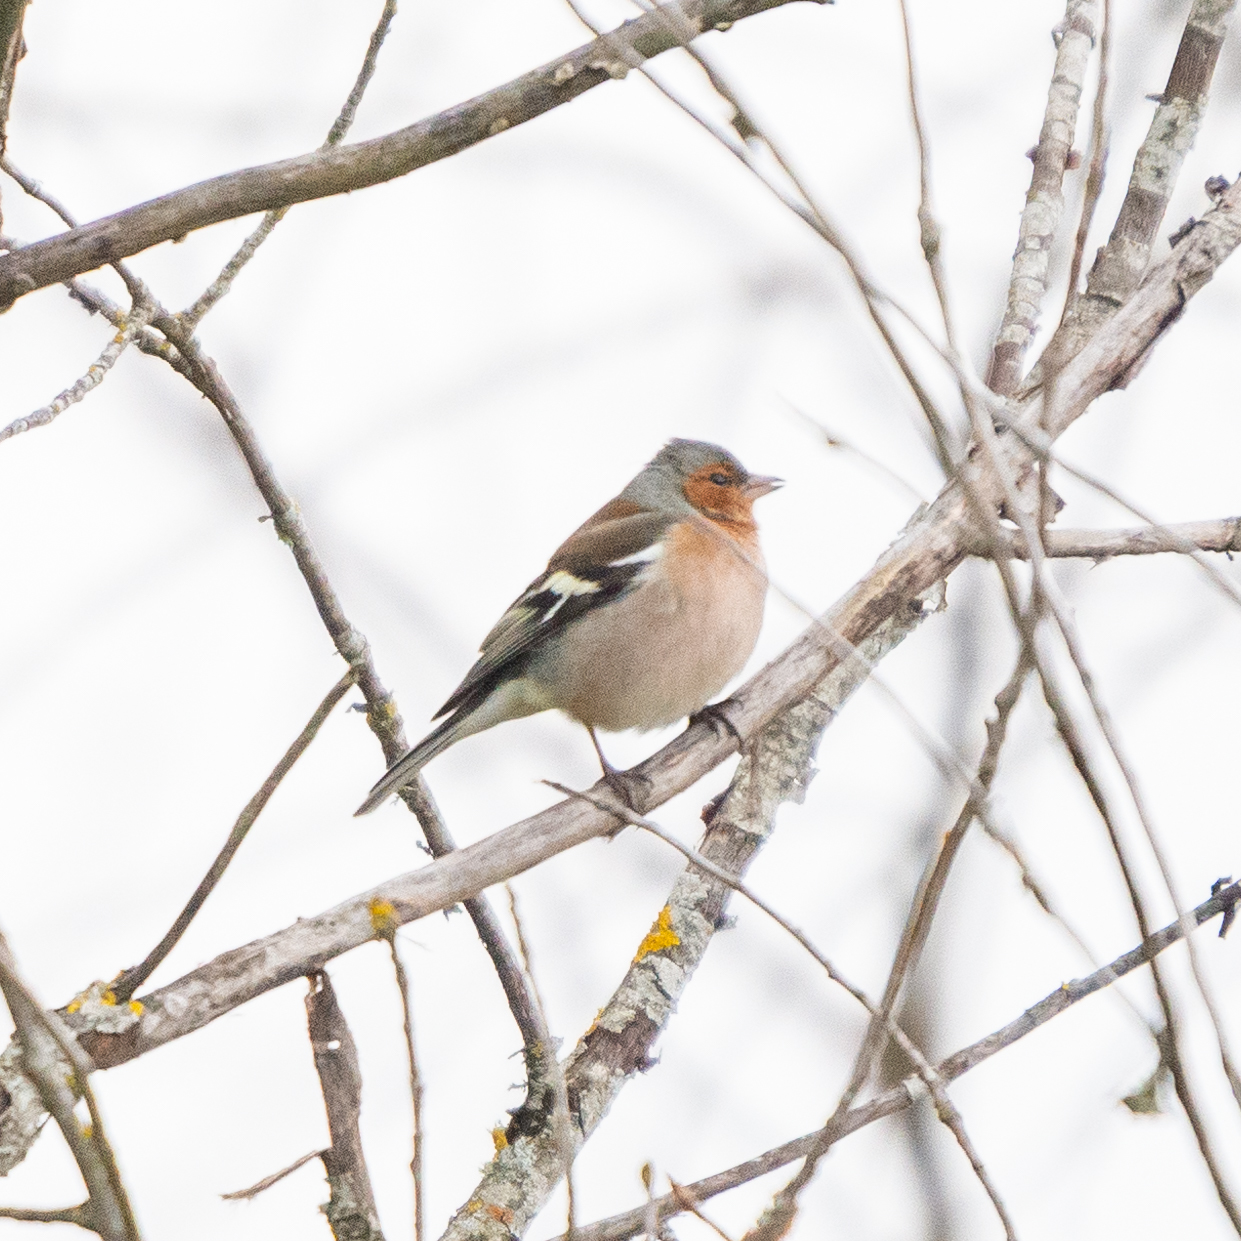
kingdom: Animalia
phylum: Chordata
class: Aves
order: Passeriformes
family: Fringillidae
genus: Fringilla
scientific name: Fringilla coelebs
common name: Common chaffinch
